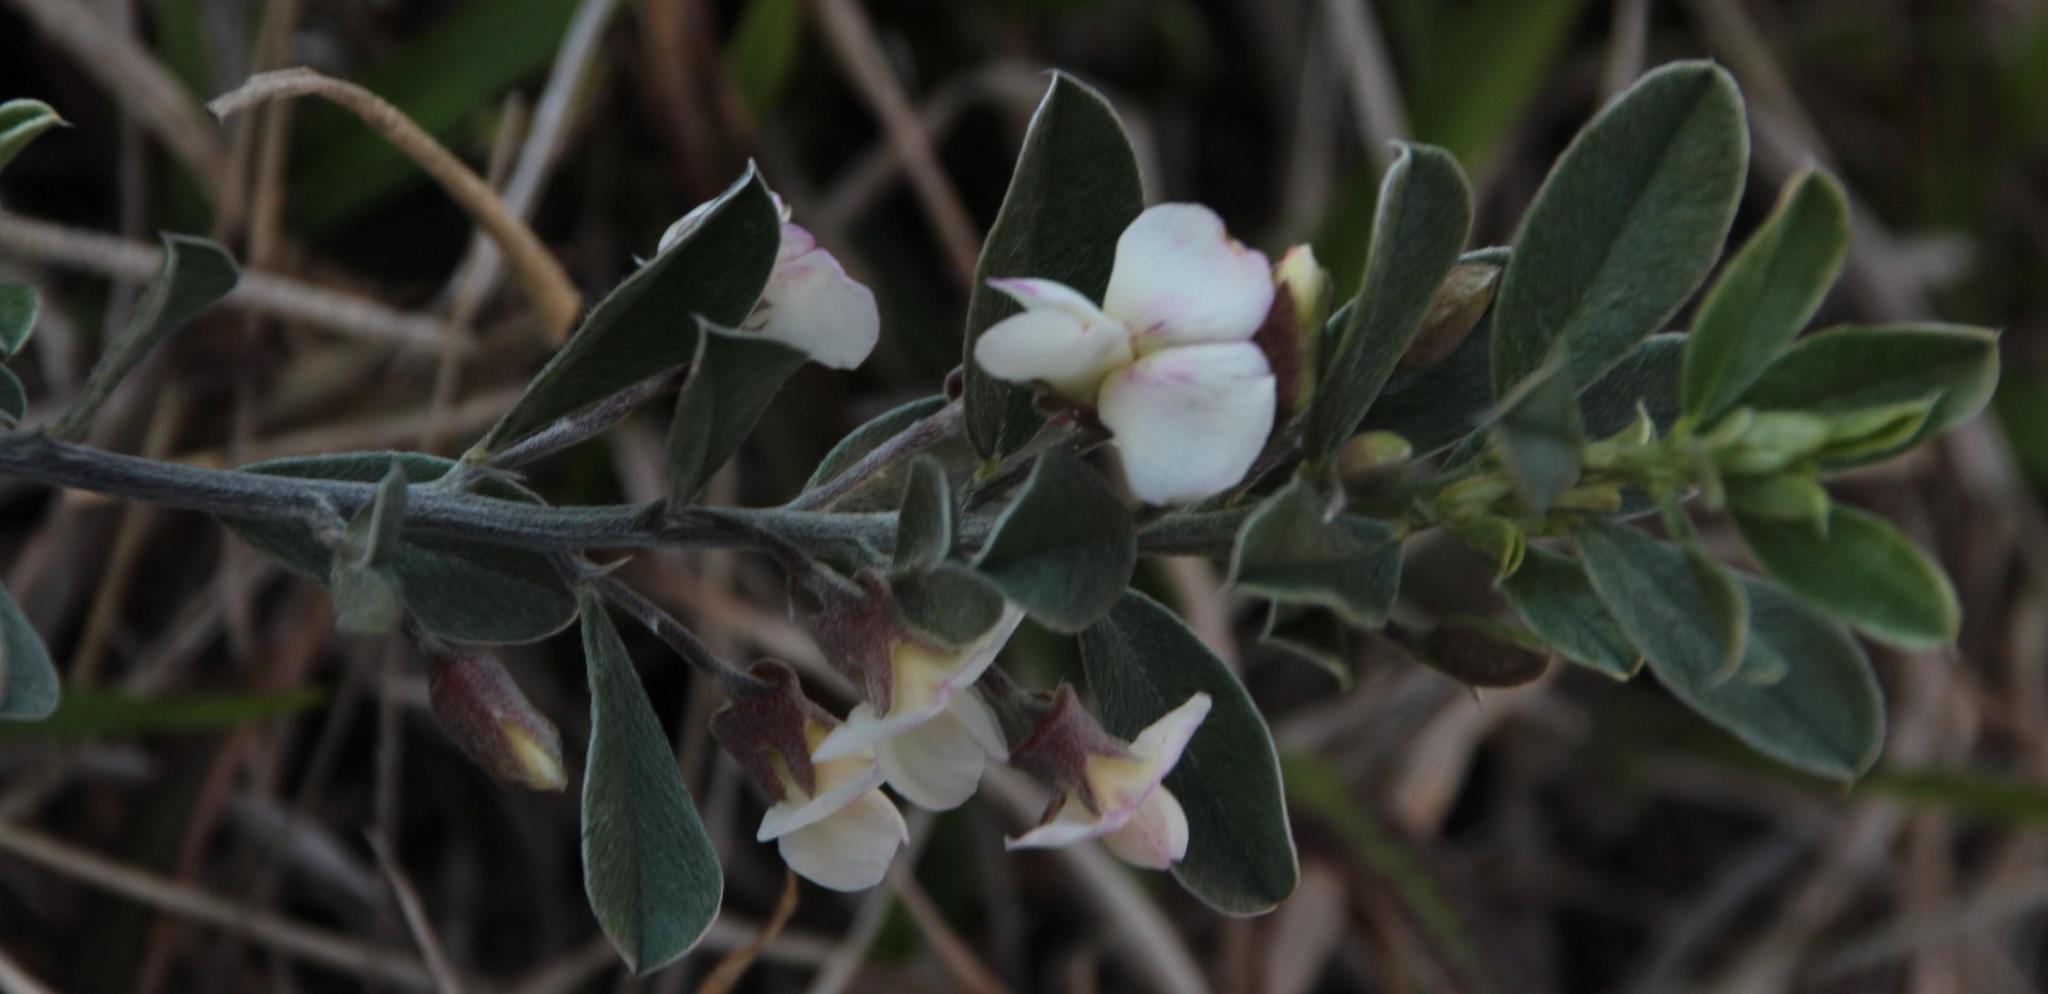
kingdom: Plantae
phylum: Tracheophyta
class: Magnoliopsida
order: Fabales
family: Fabaceae
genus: Podalyria
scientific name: Podalyria myrtillifolia
